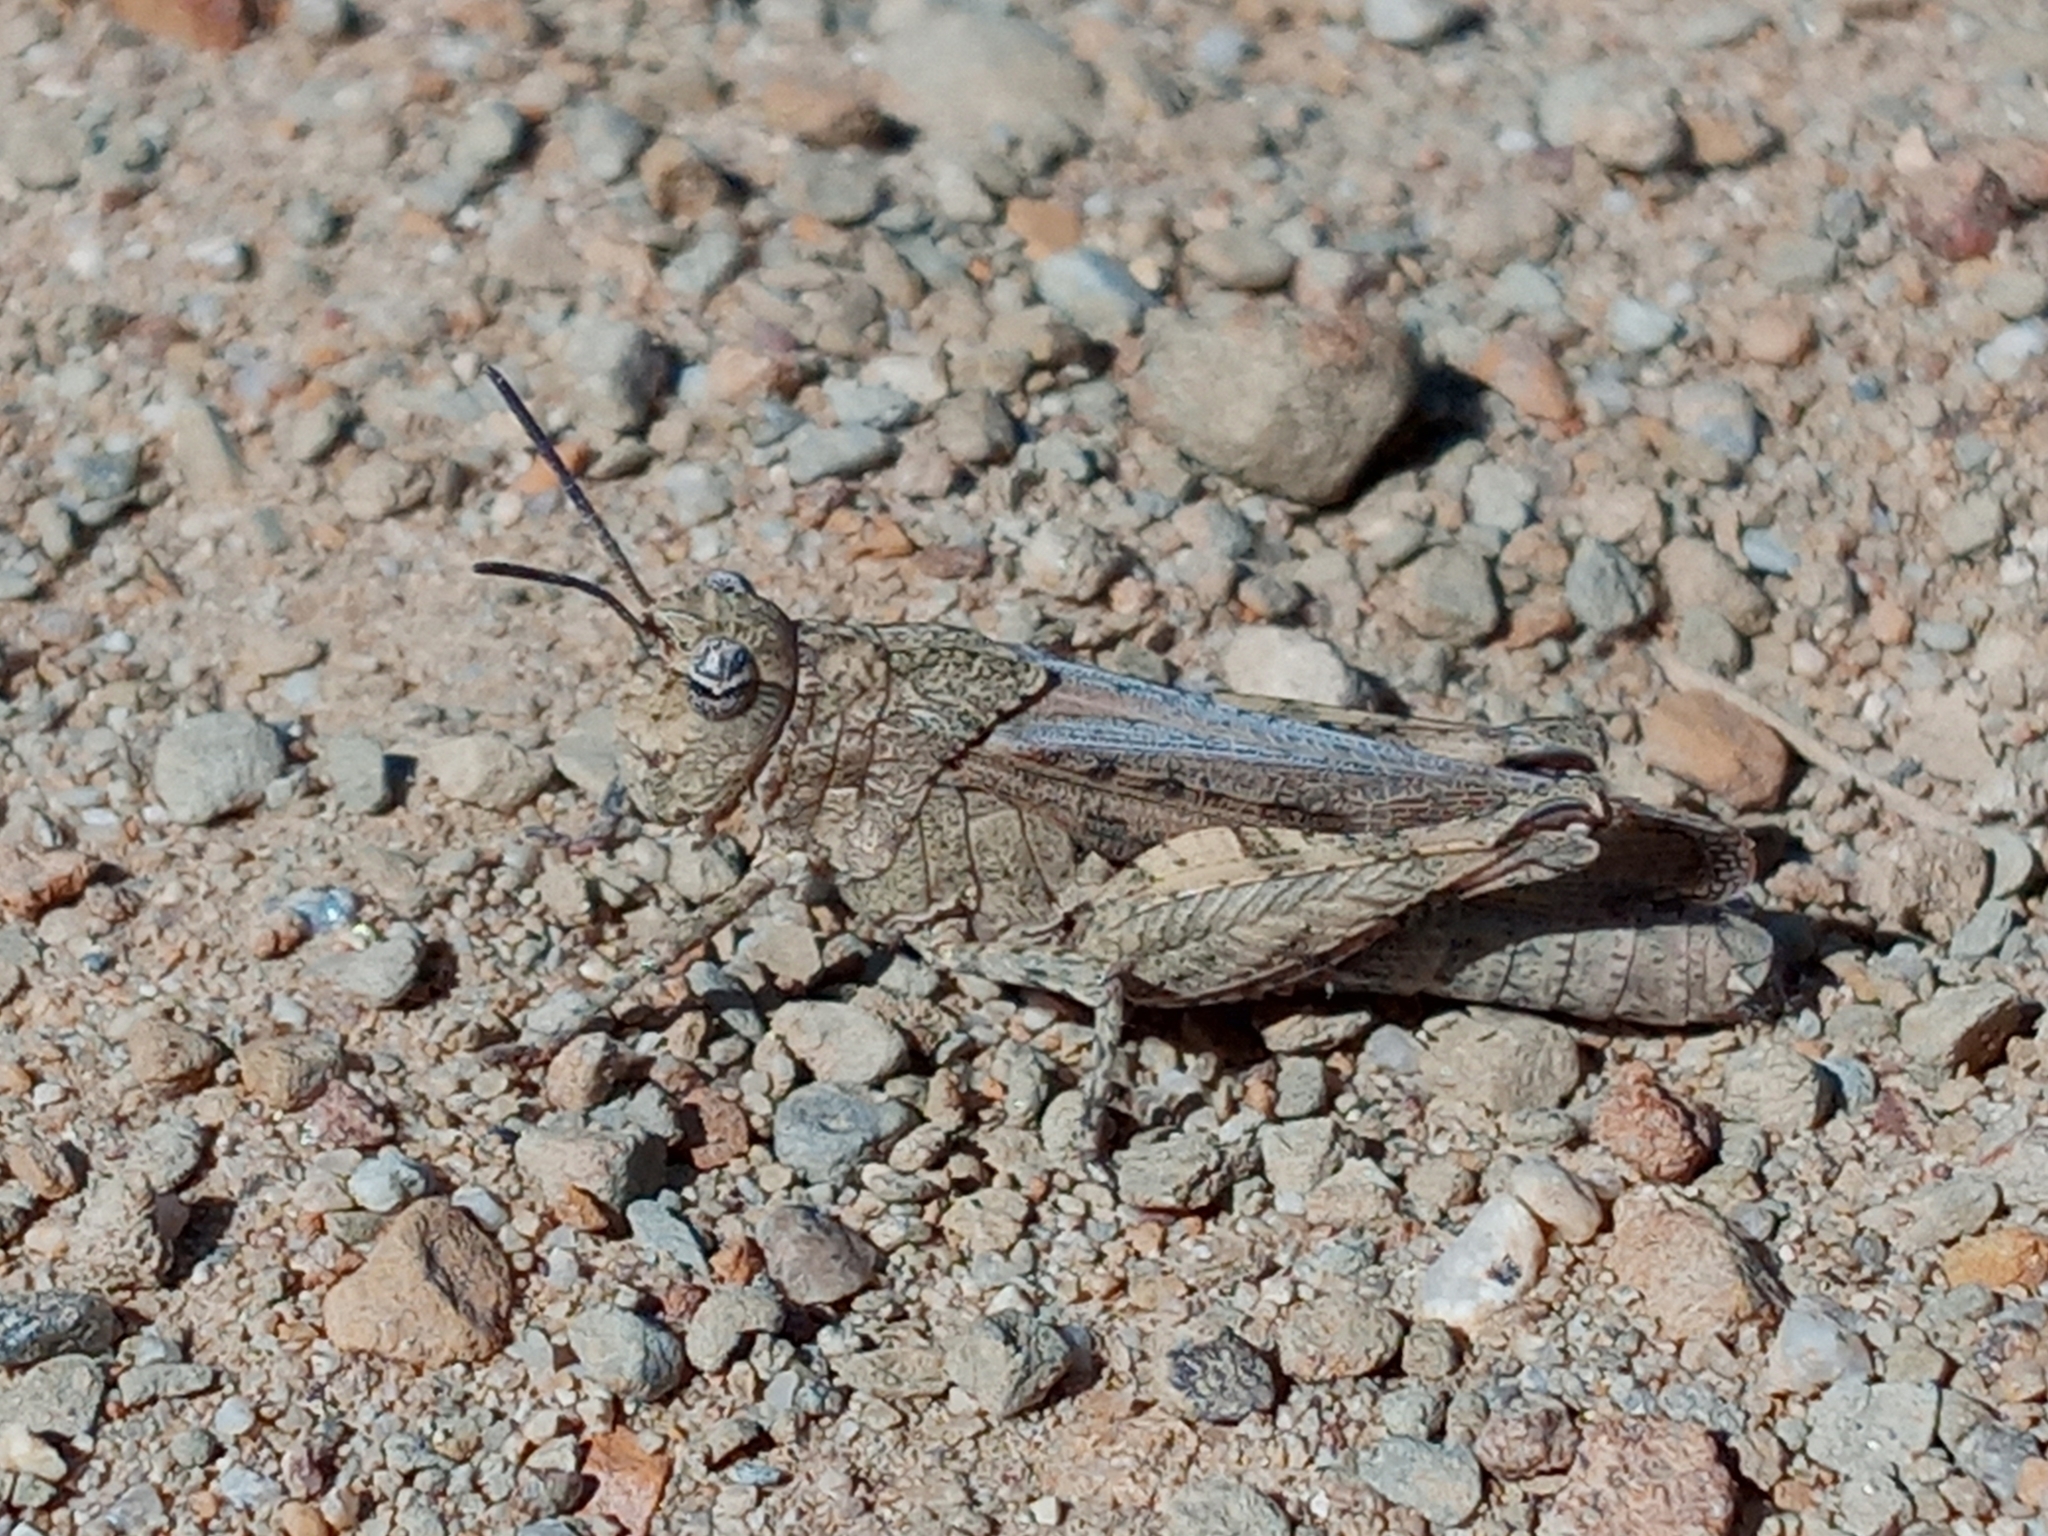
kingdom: Animalia
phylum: Arthropoda
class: Insecta
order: Orthoptera
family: Acrididae
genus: Chimarocephala
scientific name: Chimarocephala pacifica
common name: Painted meadow grasshopper
